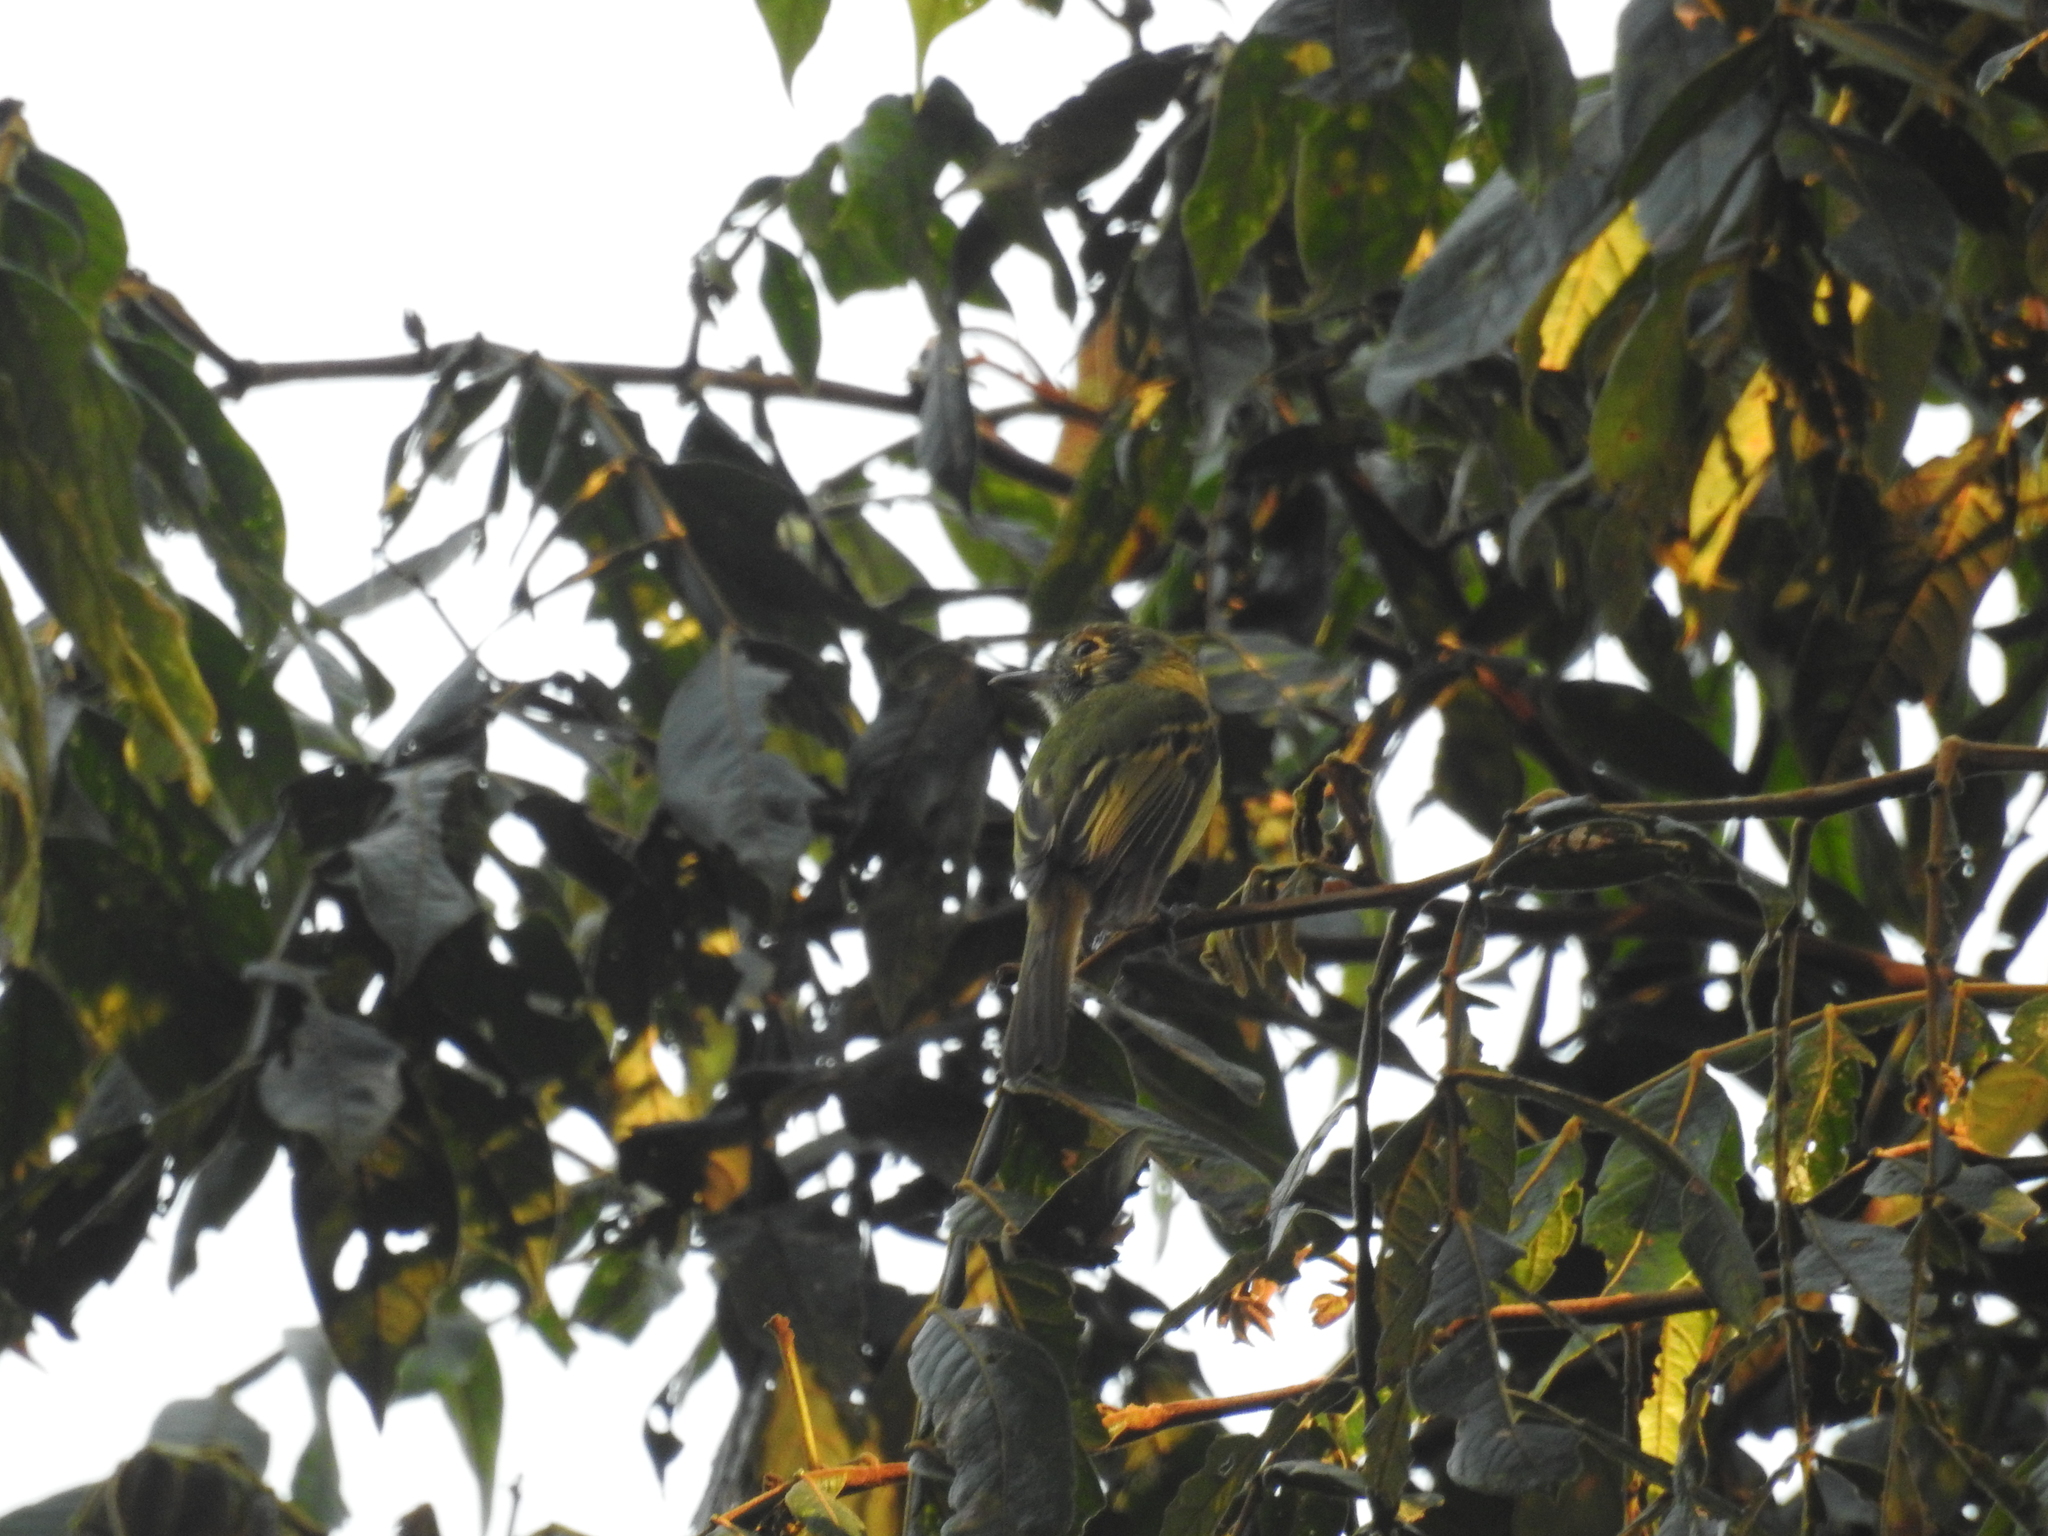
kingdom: Animalia
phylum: Chordata
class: Aves
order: Passeriformes
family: Tyrannidae
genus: Phylloscartes
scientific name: Phylloscartes oustaleti
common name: Oustalet's tyrannulet
